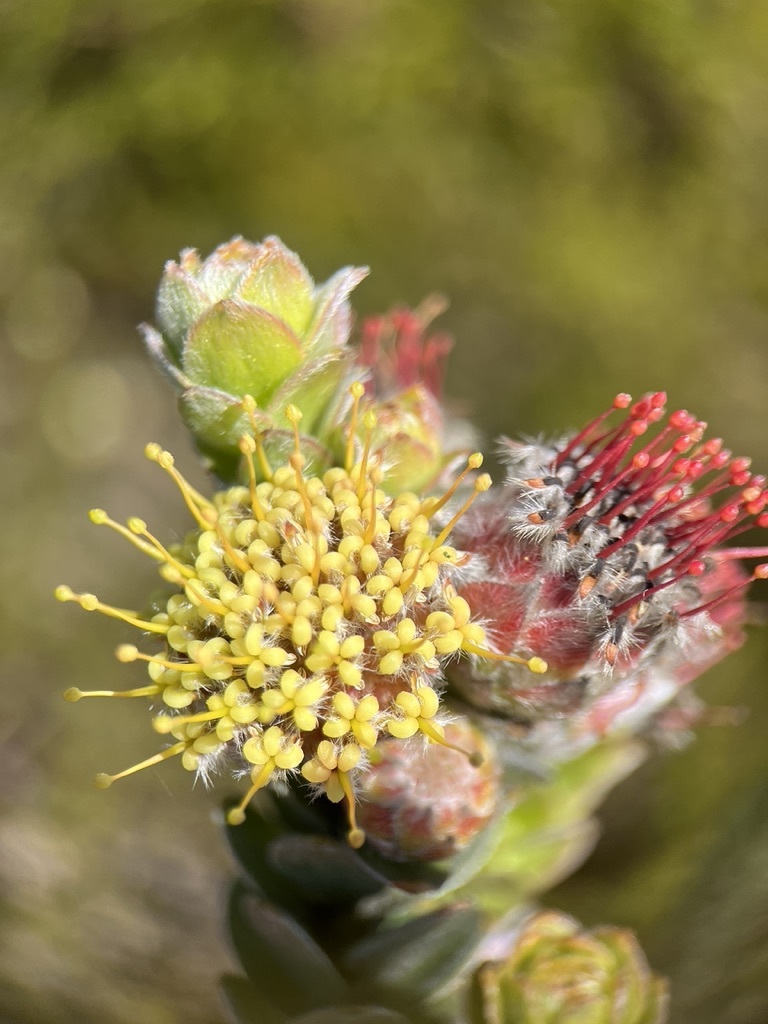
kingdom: Plantae
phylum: Tracheophyta
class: Magnoliopsida
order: Proteales
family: Proteaceae
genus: Leucospermum
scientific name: Leucospermum truncatulum
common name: Oval-leaf pincushion
